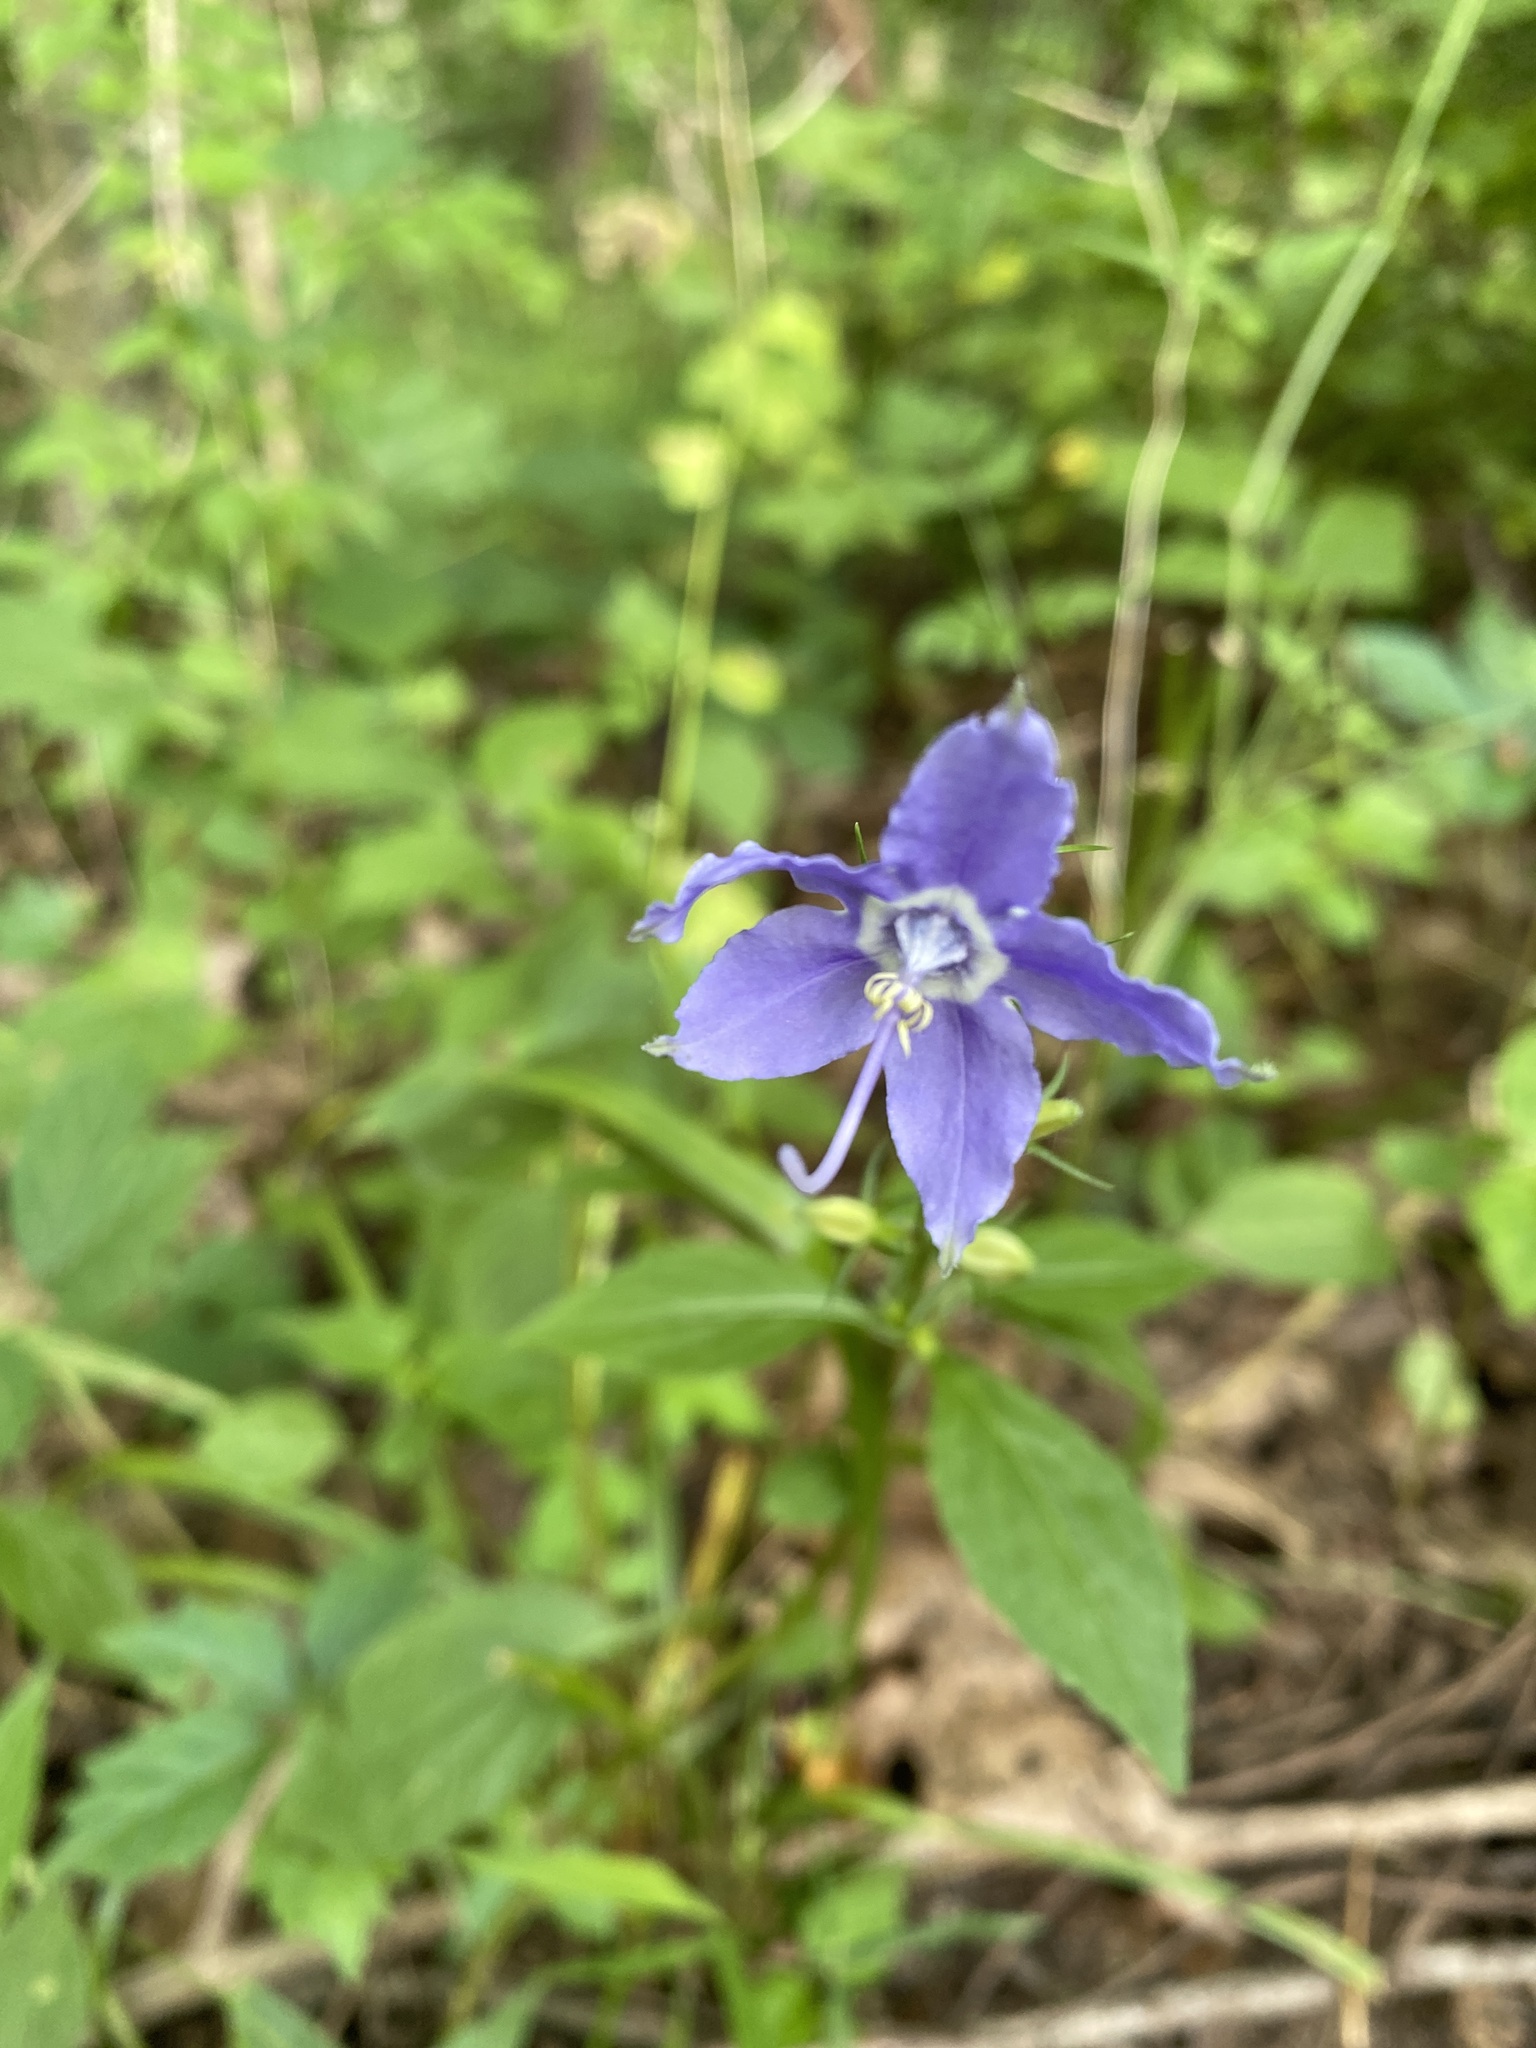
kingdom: Plantae
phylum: Tracheophyta
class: Magnoliopsida
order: Asterales
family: Campanulaceae
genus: Campanulastrum
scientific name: Campanulastrum americanum
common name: American bellflower
